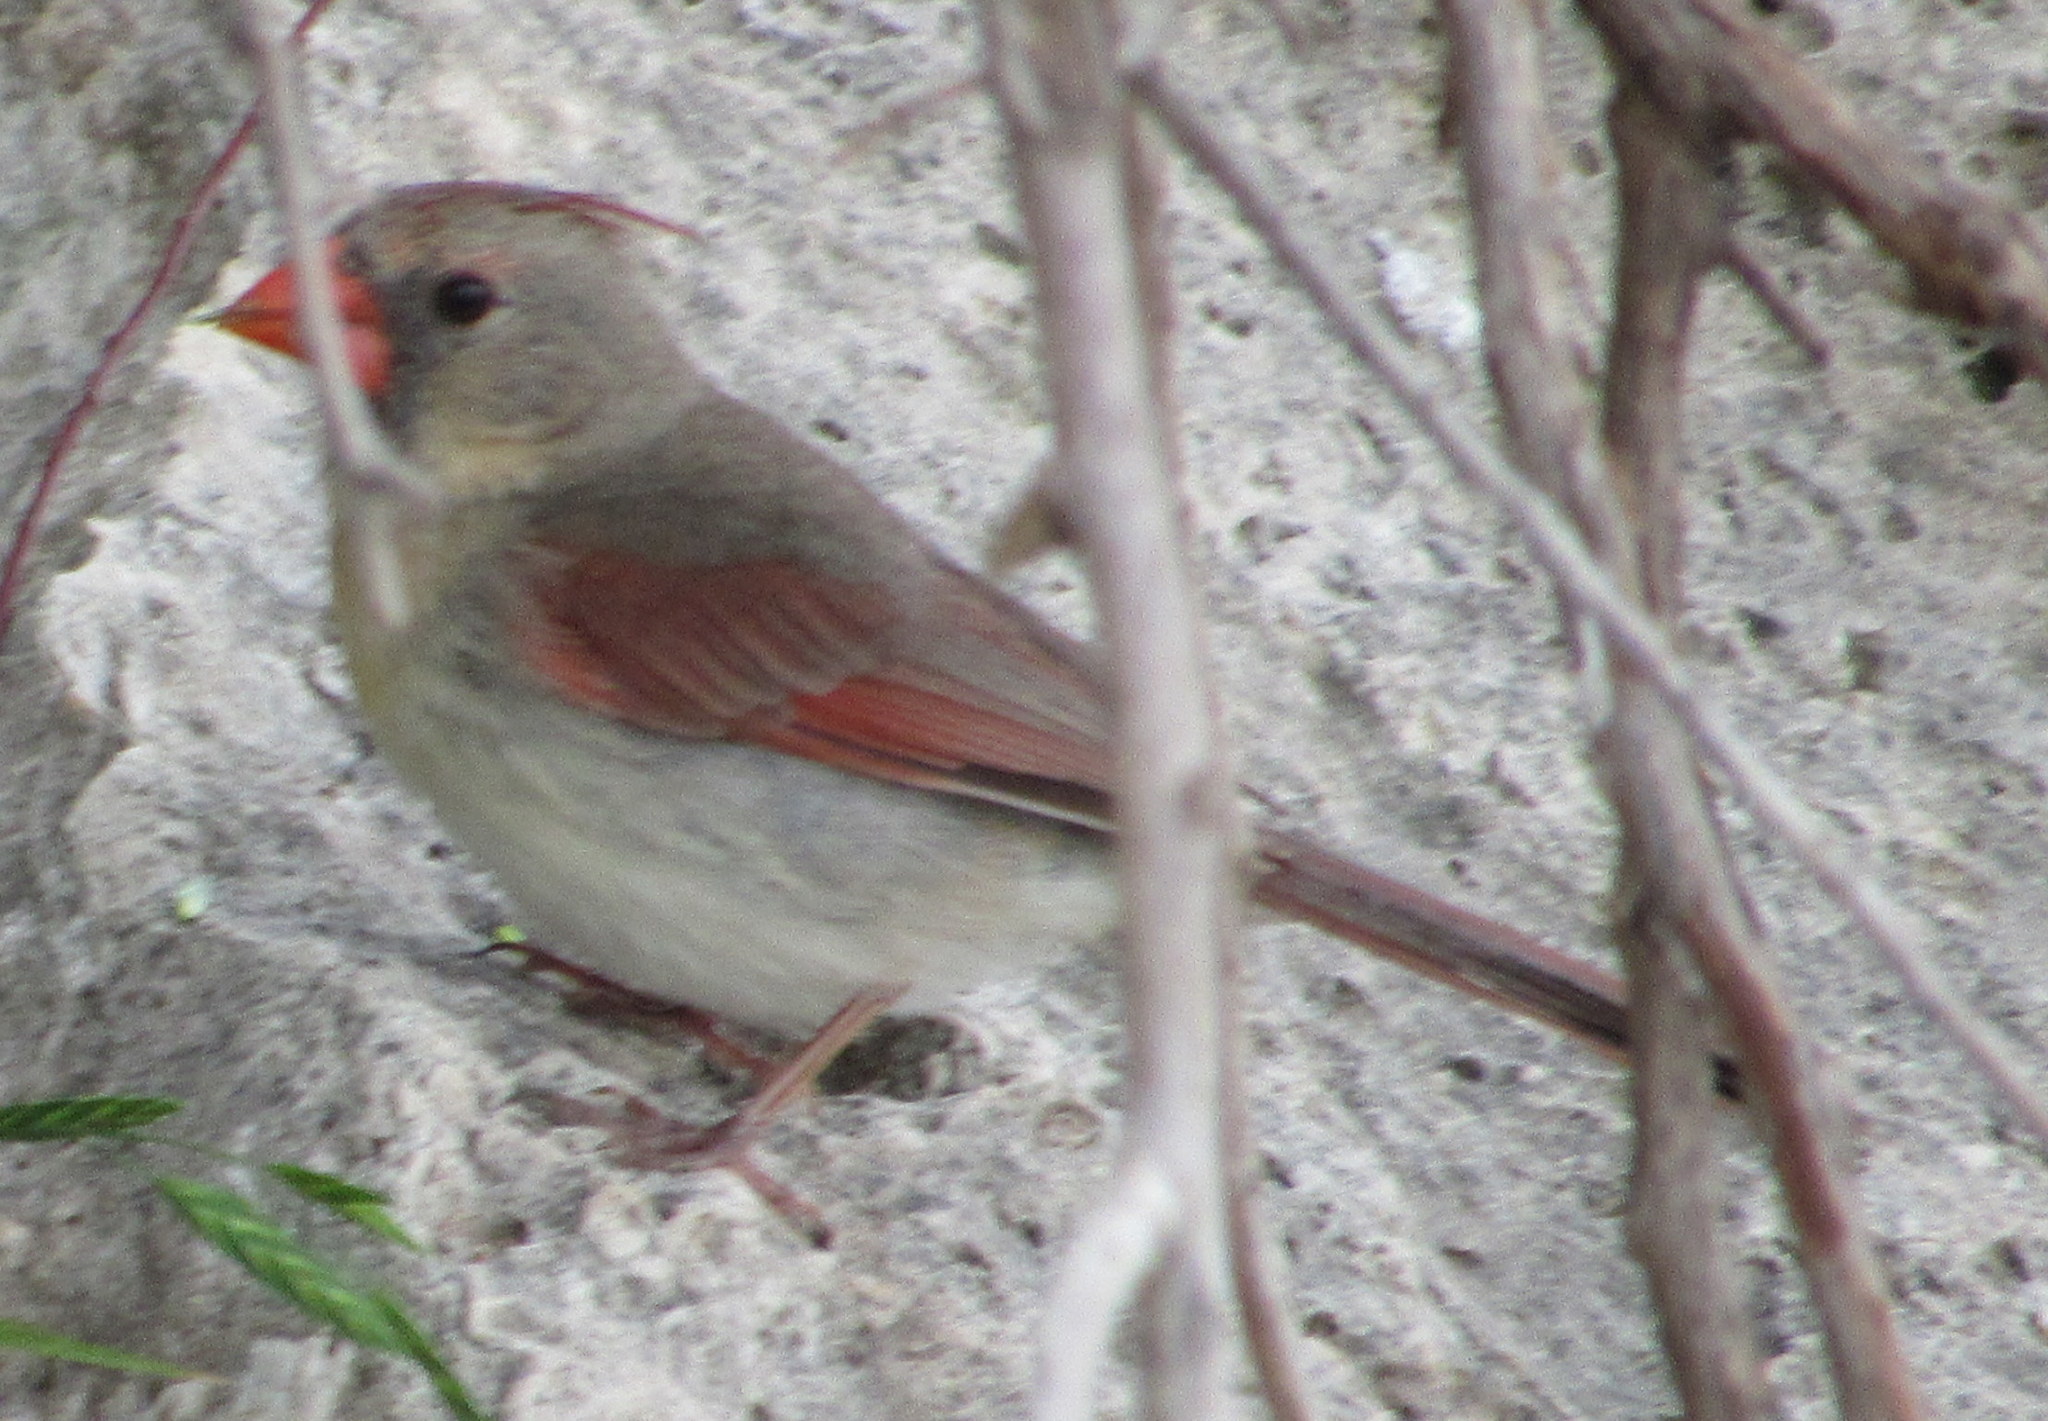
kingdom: Animalia
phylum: Chordata
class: Aves
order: Passeriformes
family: Cardinalidae
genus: Cardinalis
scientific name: Cardinalis cardinalis
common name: Northern cardinal
